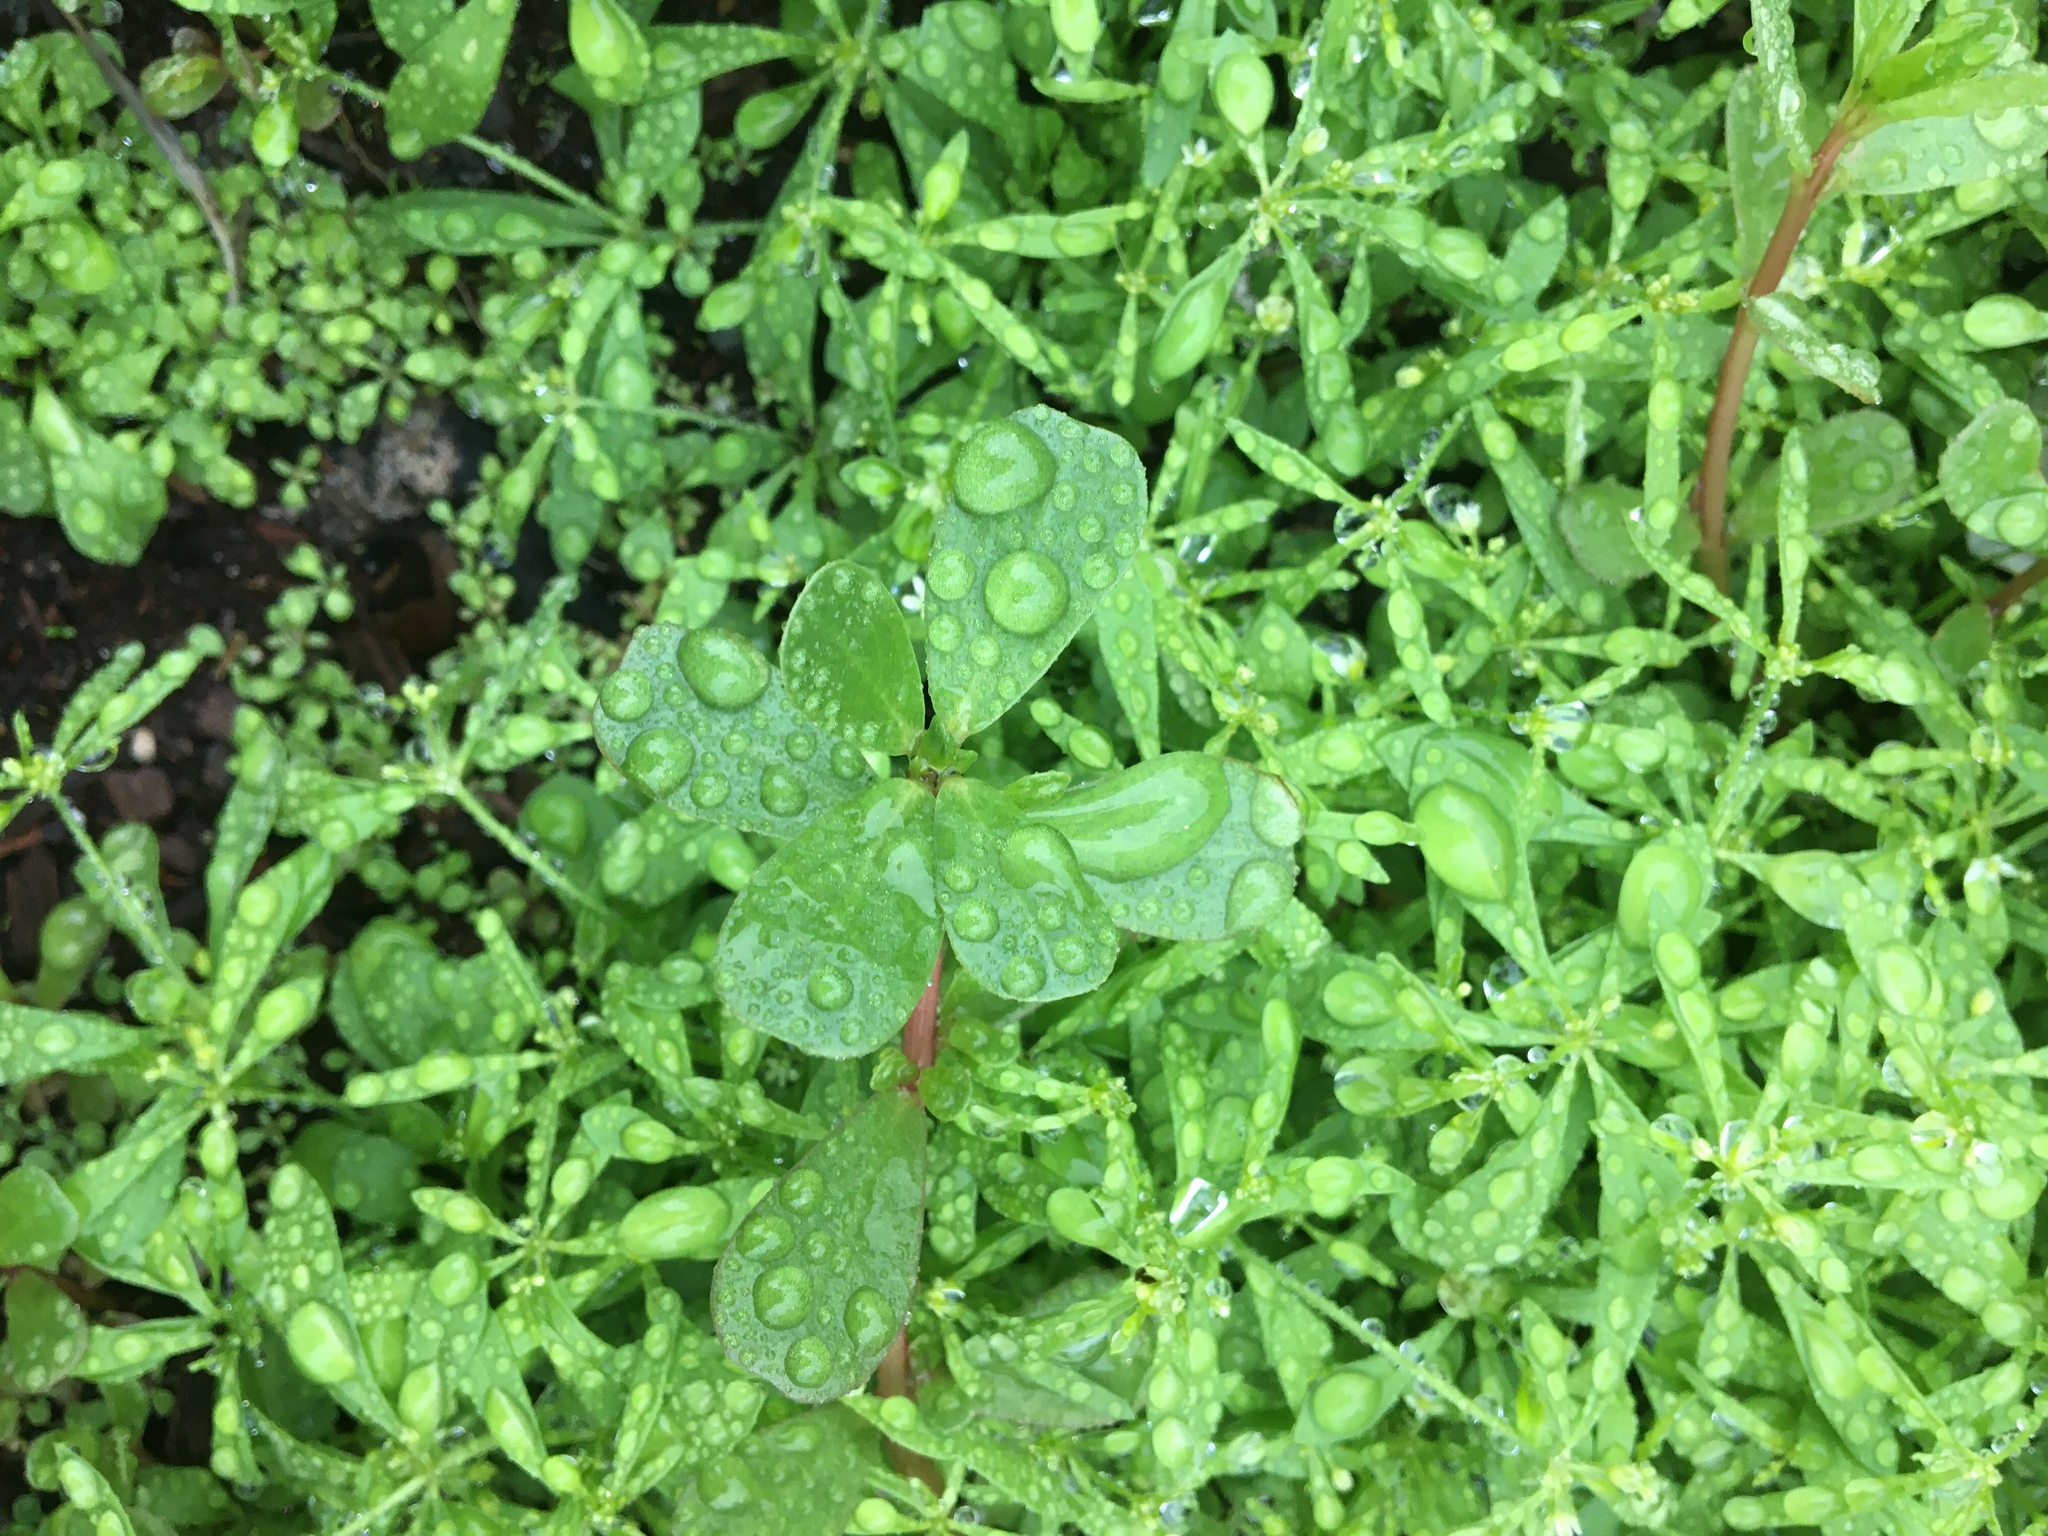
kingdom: Plantae
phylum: Tracheophyta
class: Magnoliopsida
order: Caryophyllales
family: Portulacaceae
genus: Portulaca
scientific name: Portulaca oleracea
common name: Common purslane
